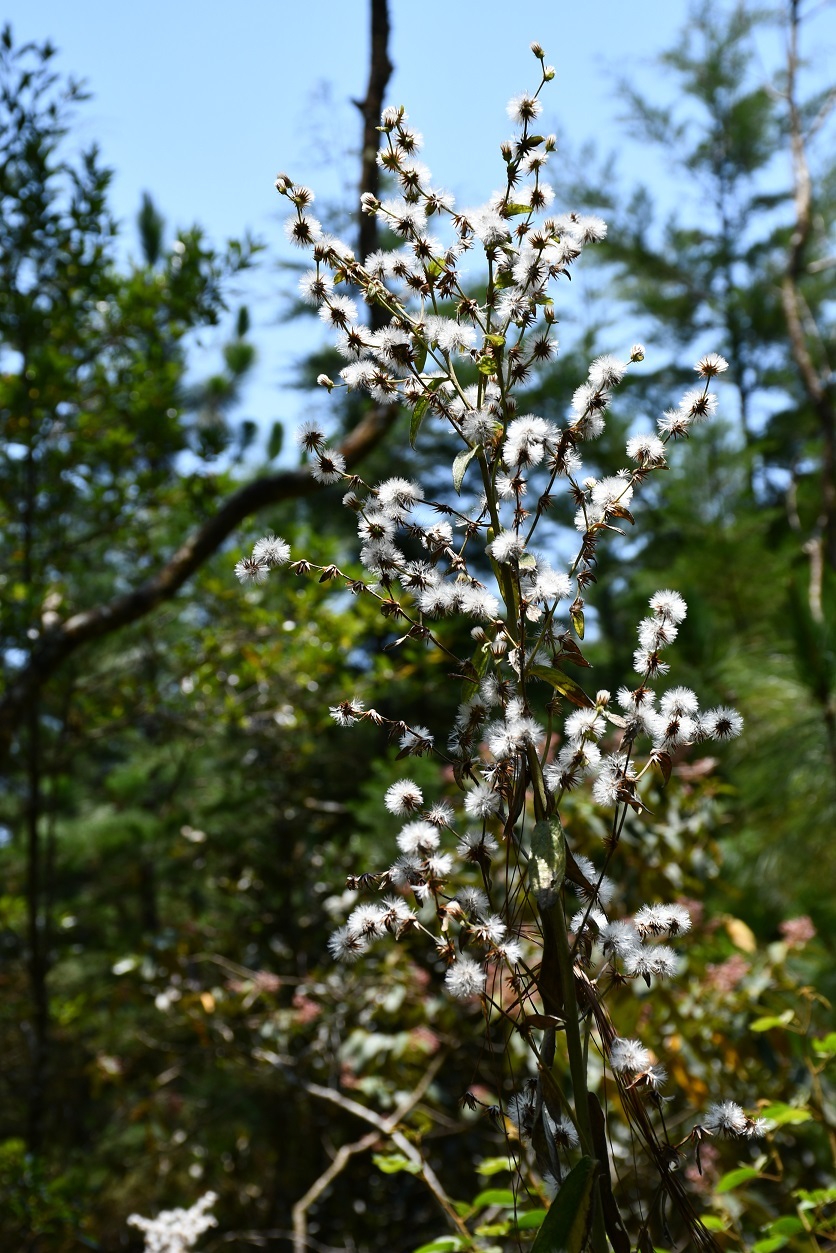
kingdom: Plantae
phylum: Tracheophyta
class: Magnoliopsida
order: Asterales
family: Asteraceae
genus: Lepidaploa
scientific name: Lepidaploa argyropappa
